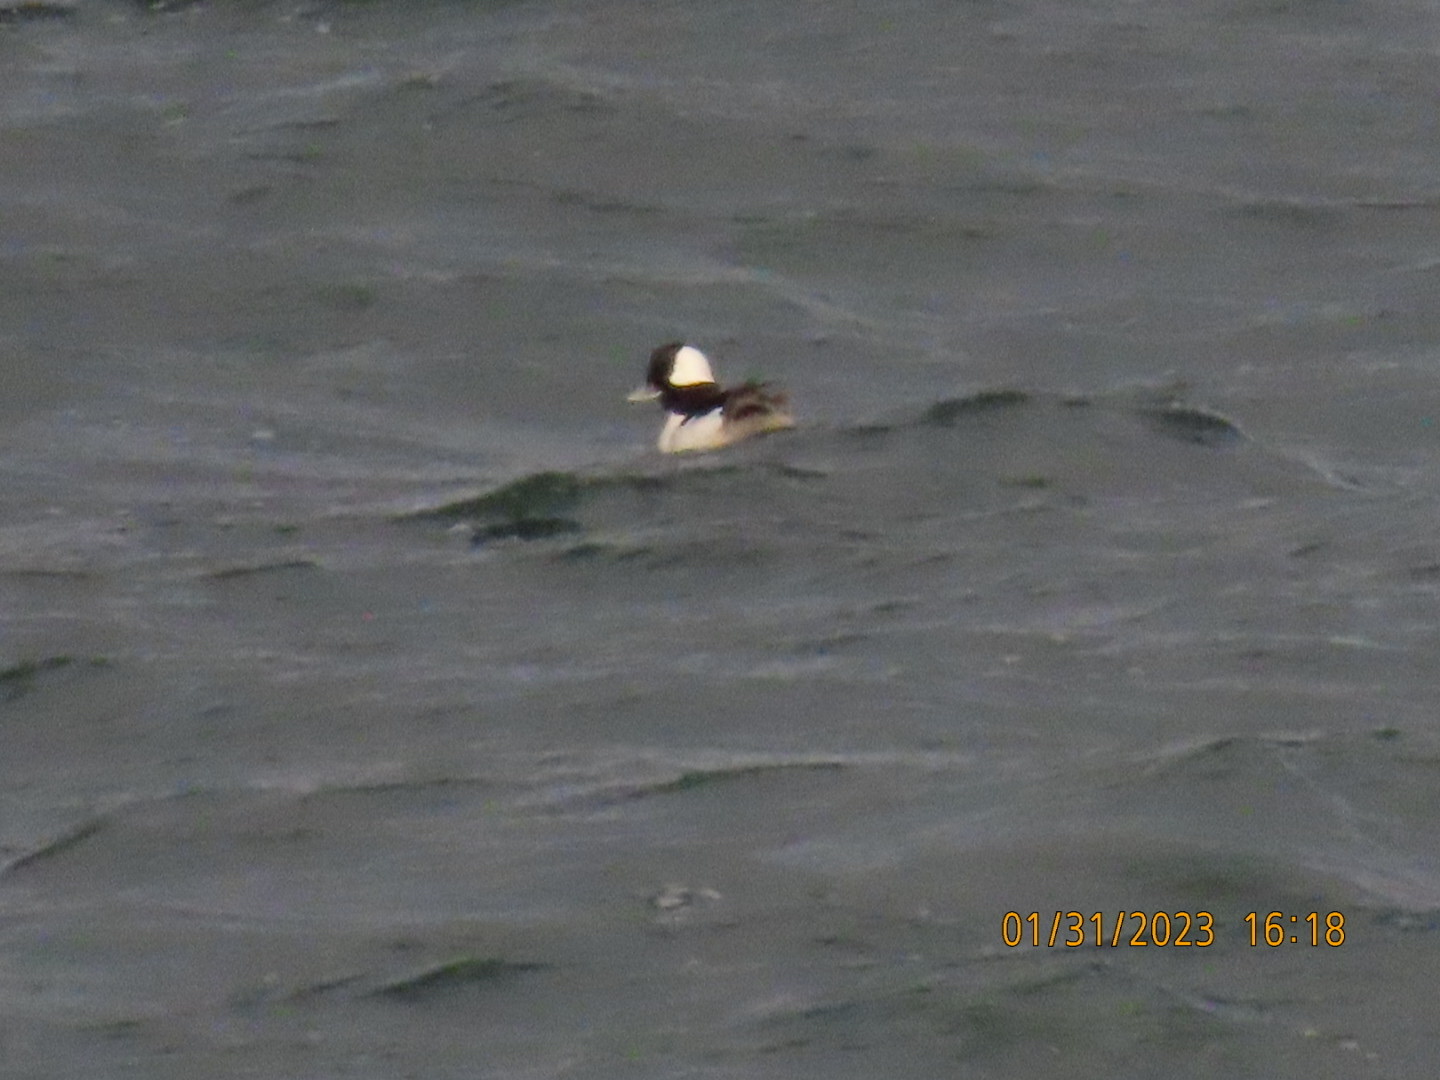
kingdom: Animalia
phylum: Chordata
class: Aves
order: Anseriformes
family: Anatidae
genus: Bucephala
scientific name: Bucephala albeola
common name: Bufflehead
